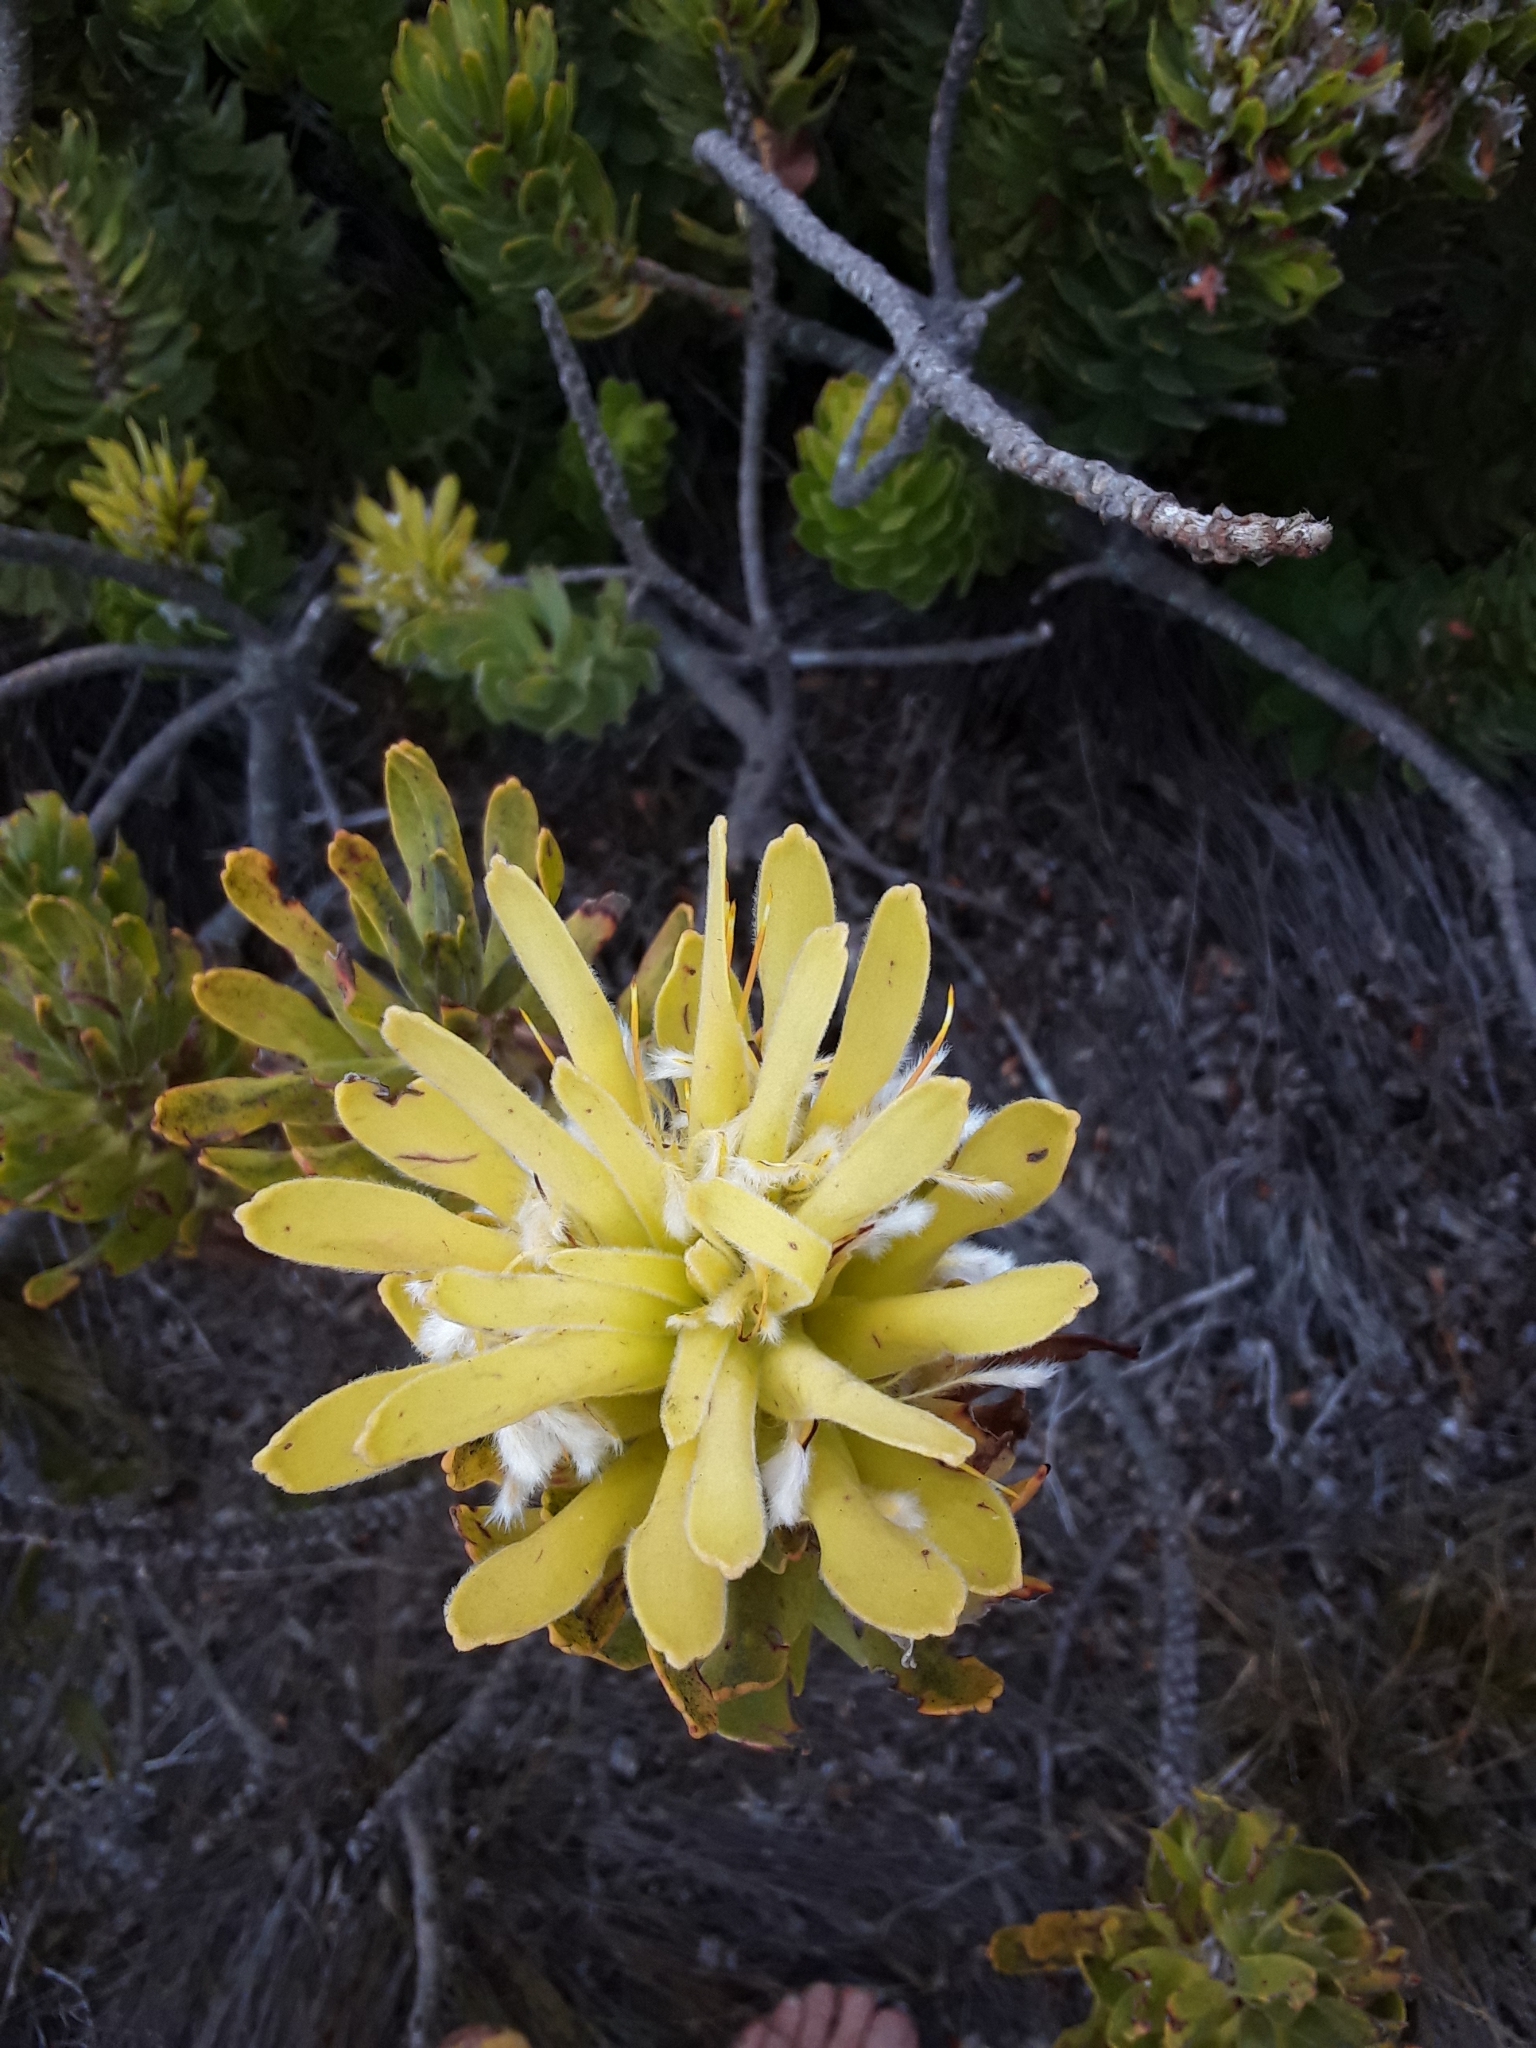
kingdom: Plantae
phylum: Tracheophyta
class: Magnoliopsida
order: Proteales
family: Proteaceae
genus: Mimetes
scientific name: Mimetes cucullatus
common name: Common pagoda
